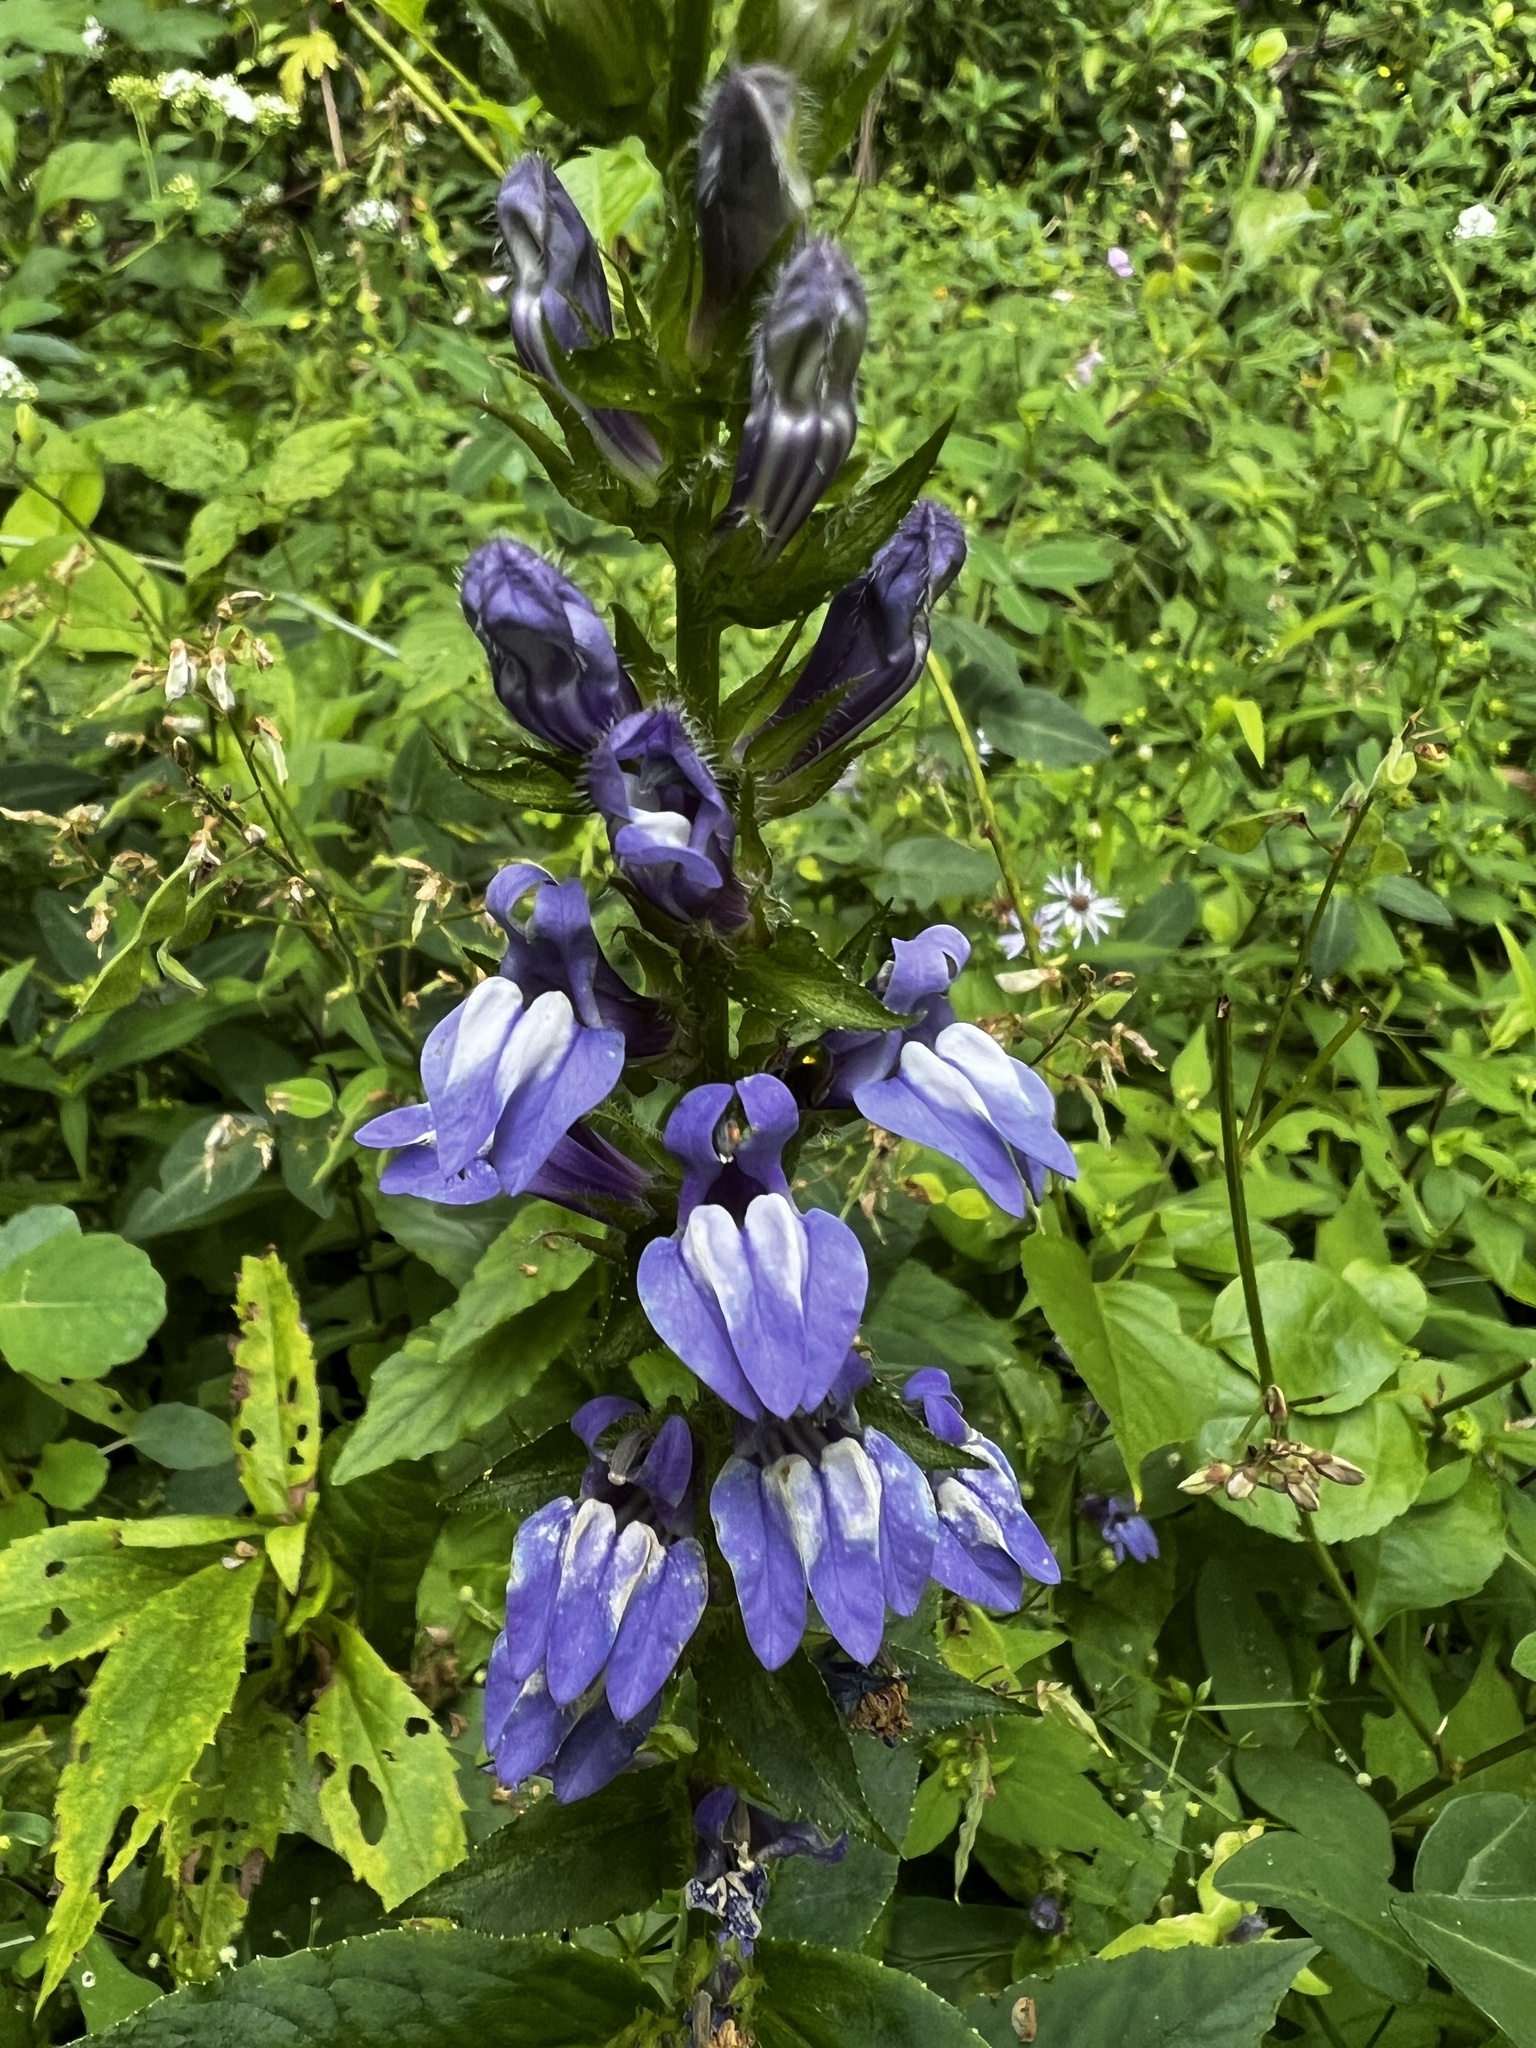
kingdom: Plantae
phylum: Tracheophyta
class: Magnoliopsida
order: Asterales
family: Campanulaceae
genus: Lobelia
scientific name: Lobelia siphilitica
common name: Great lobelia
